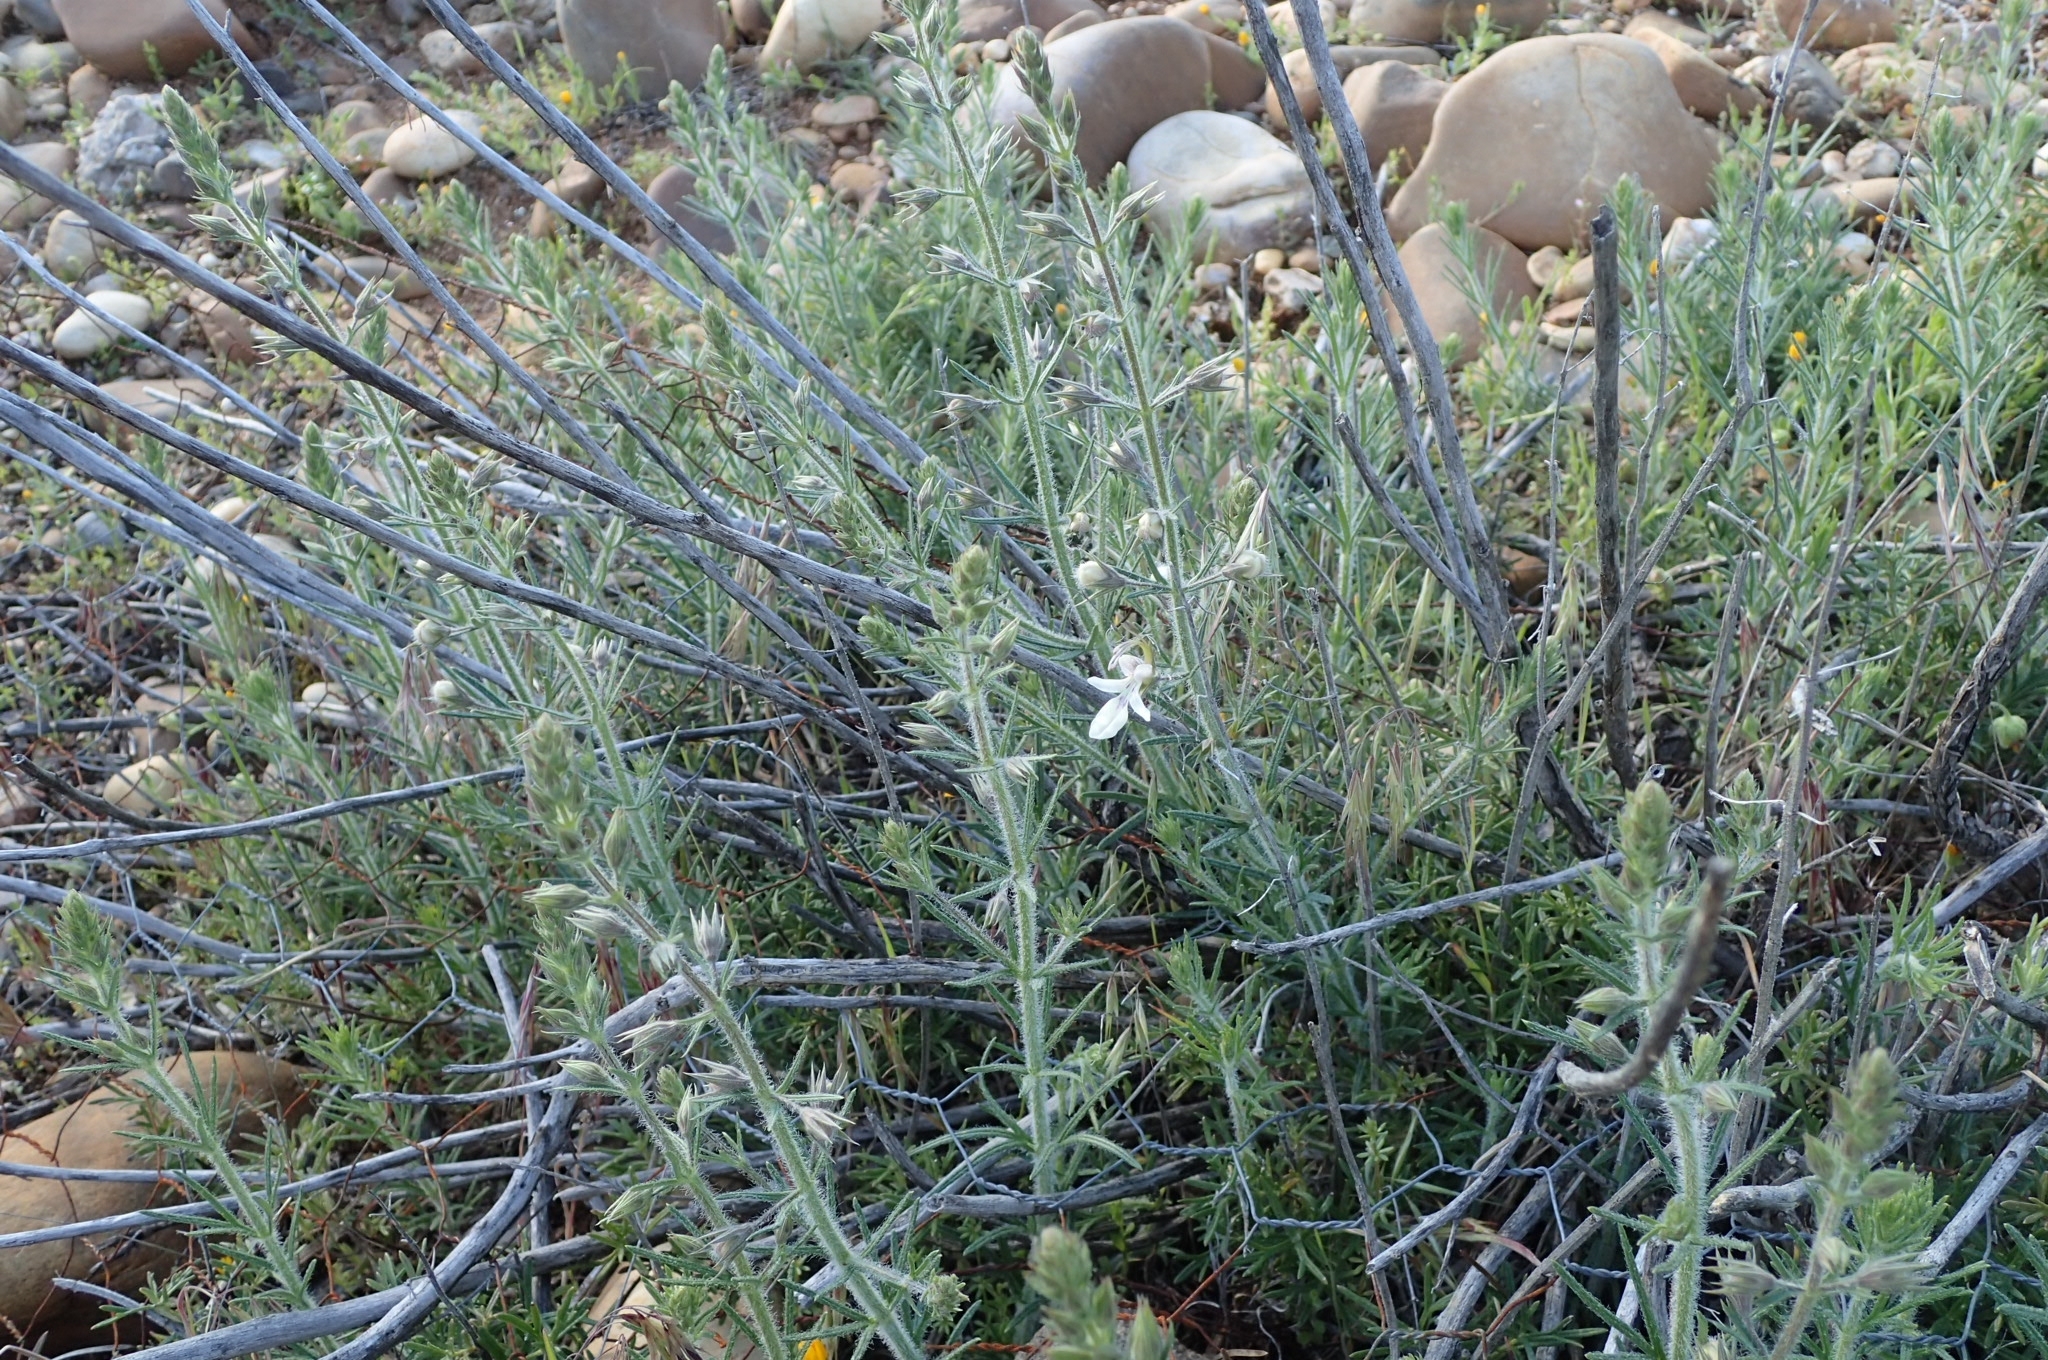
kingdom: Plantae
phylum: Tracheophyta
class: Magnoliopsida
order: Lamiales
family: Lamiaceae
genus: Teucrium
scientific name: Teucrium pseudochamaepitys
